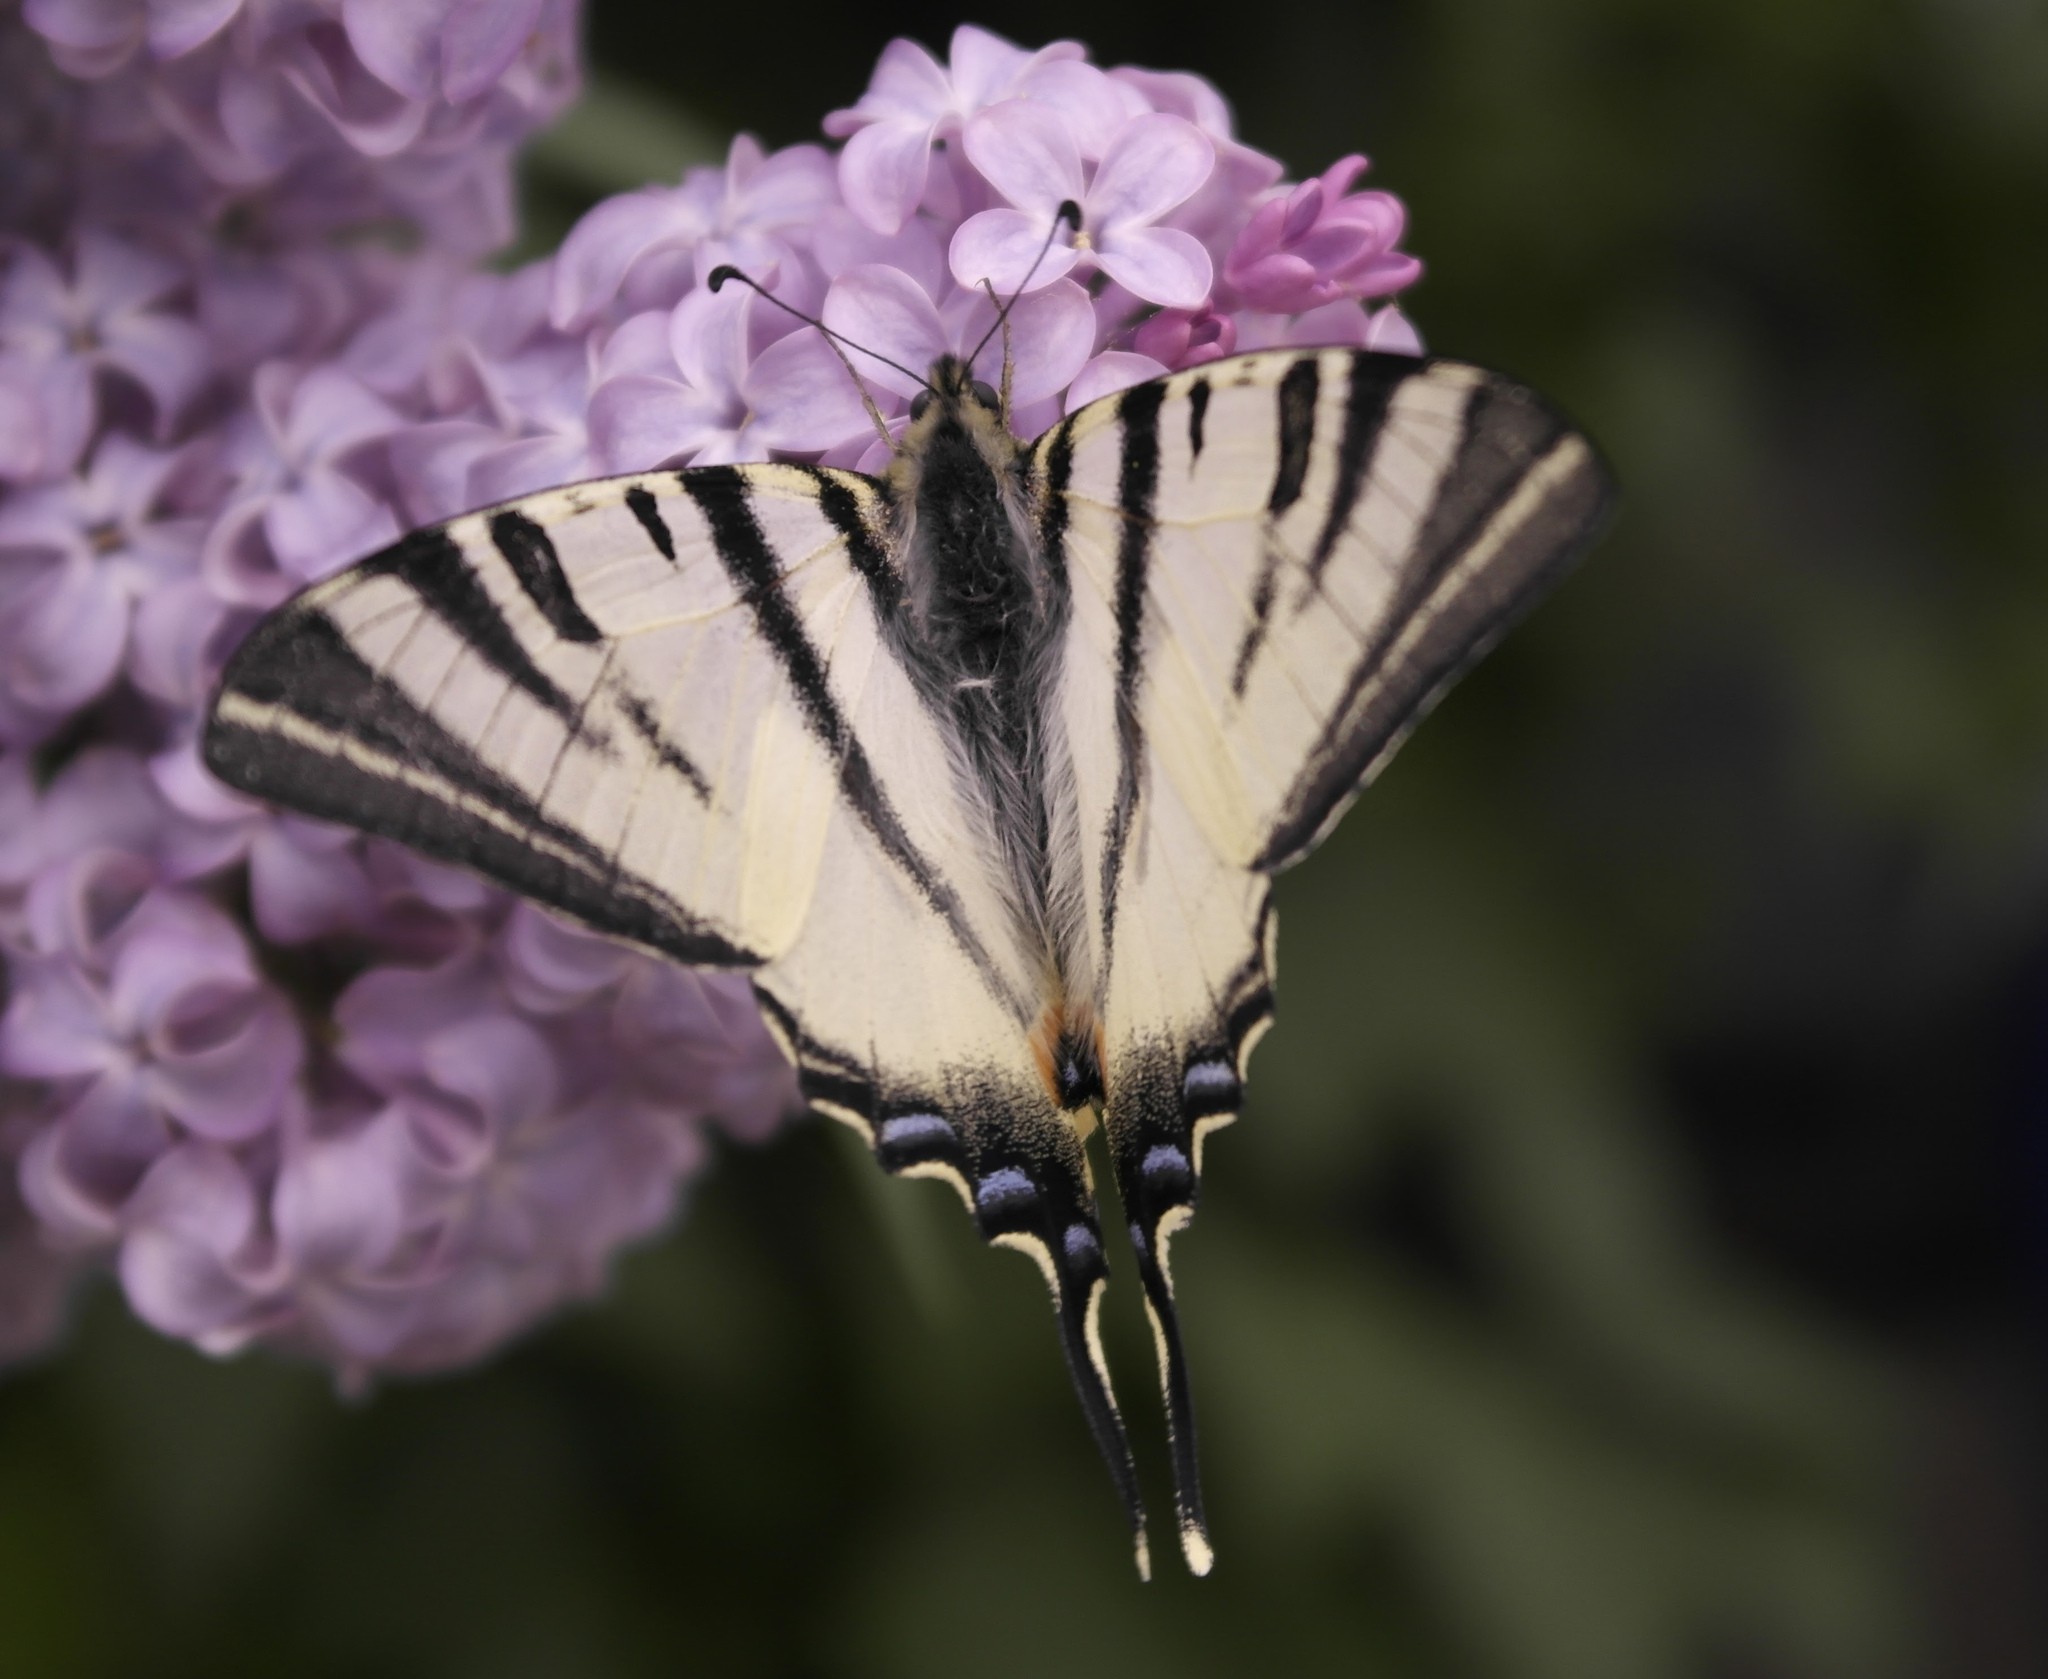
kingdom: Animalia
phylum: Arthropoda
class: Insecta
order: Lepidoptera
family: Papilionidae
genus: Iphiclides
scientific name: Iphiclides podalirius
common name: Scarce swallowtail
